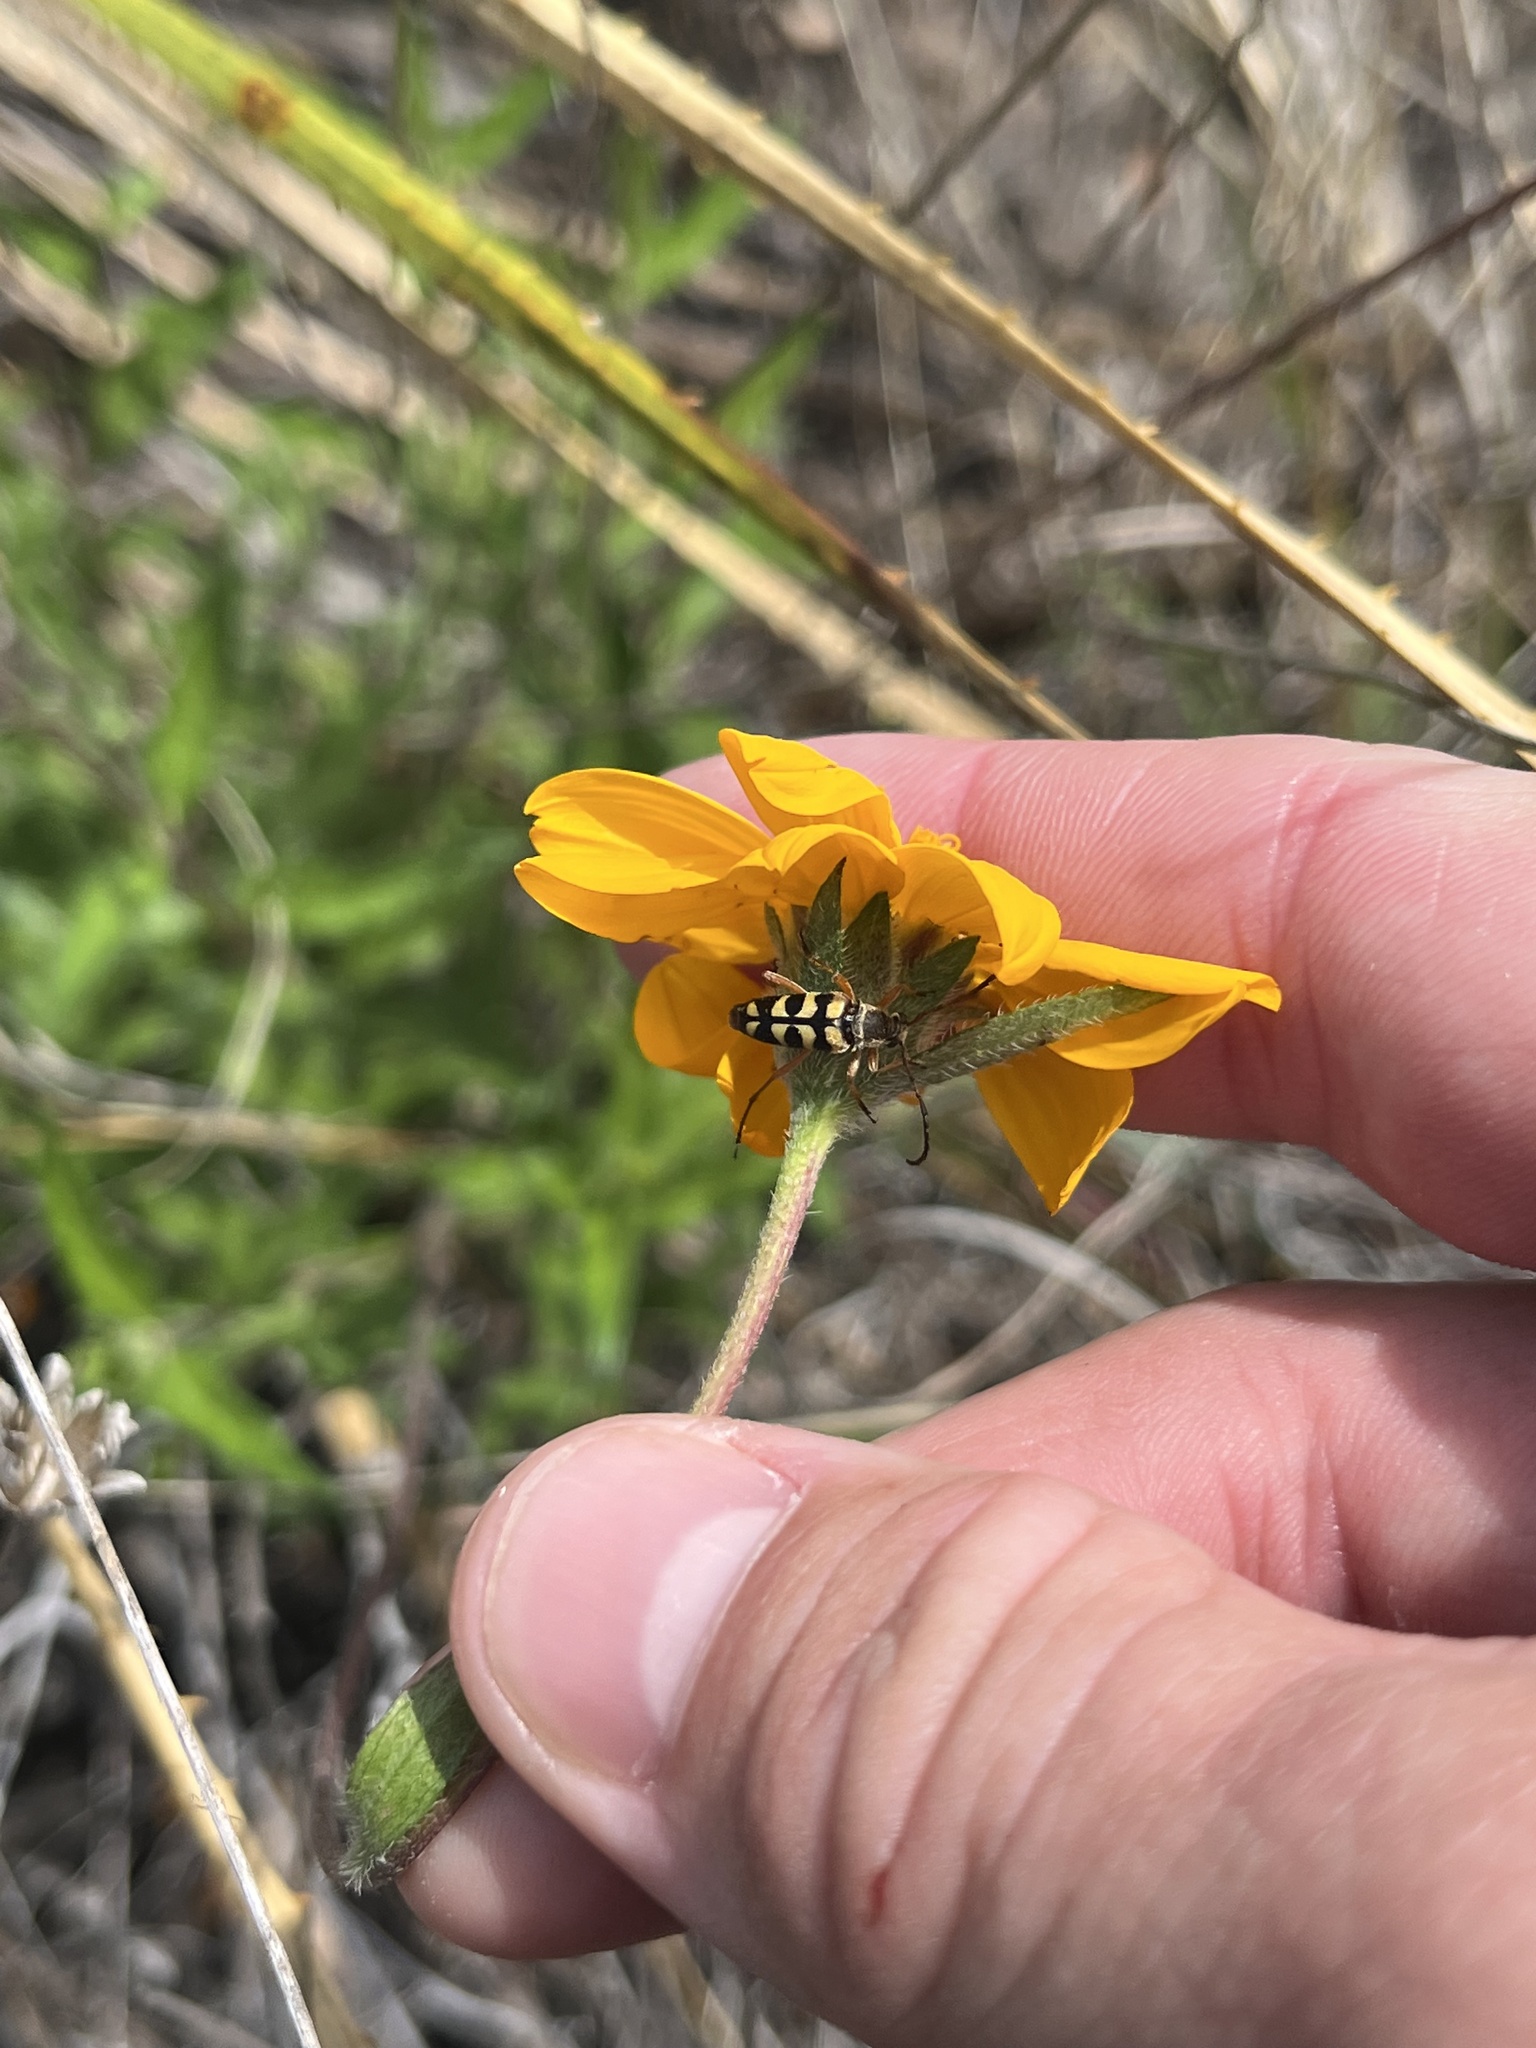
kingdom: Animalia
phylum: Arthropoda
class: Insecta
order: Coleoptera
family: Cerambycidae
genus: Typocerus
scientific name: Typocerus sinuatus
